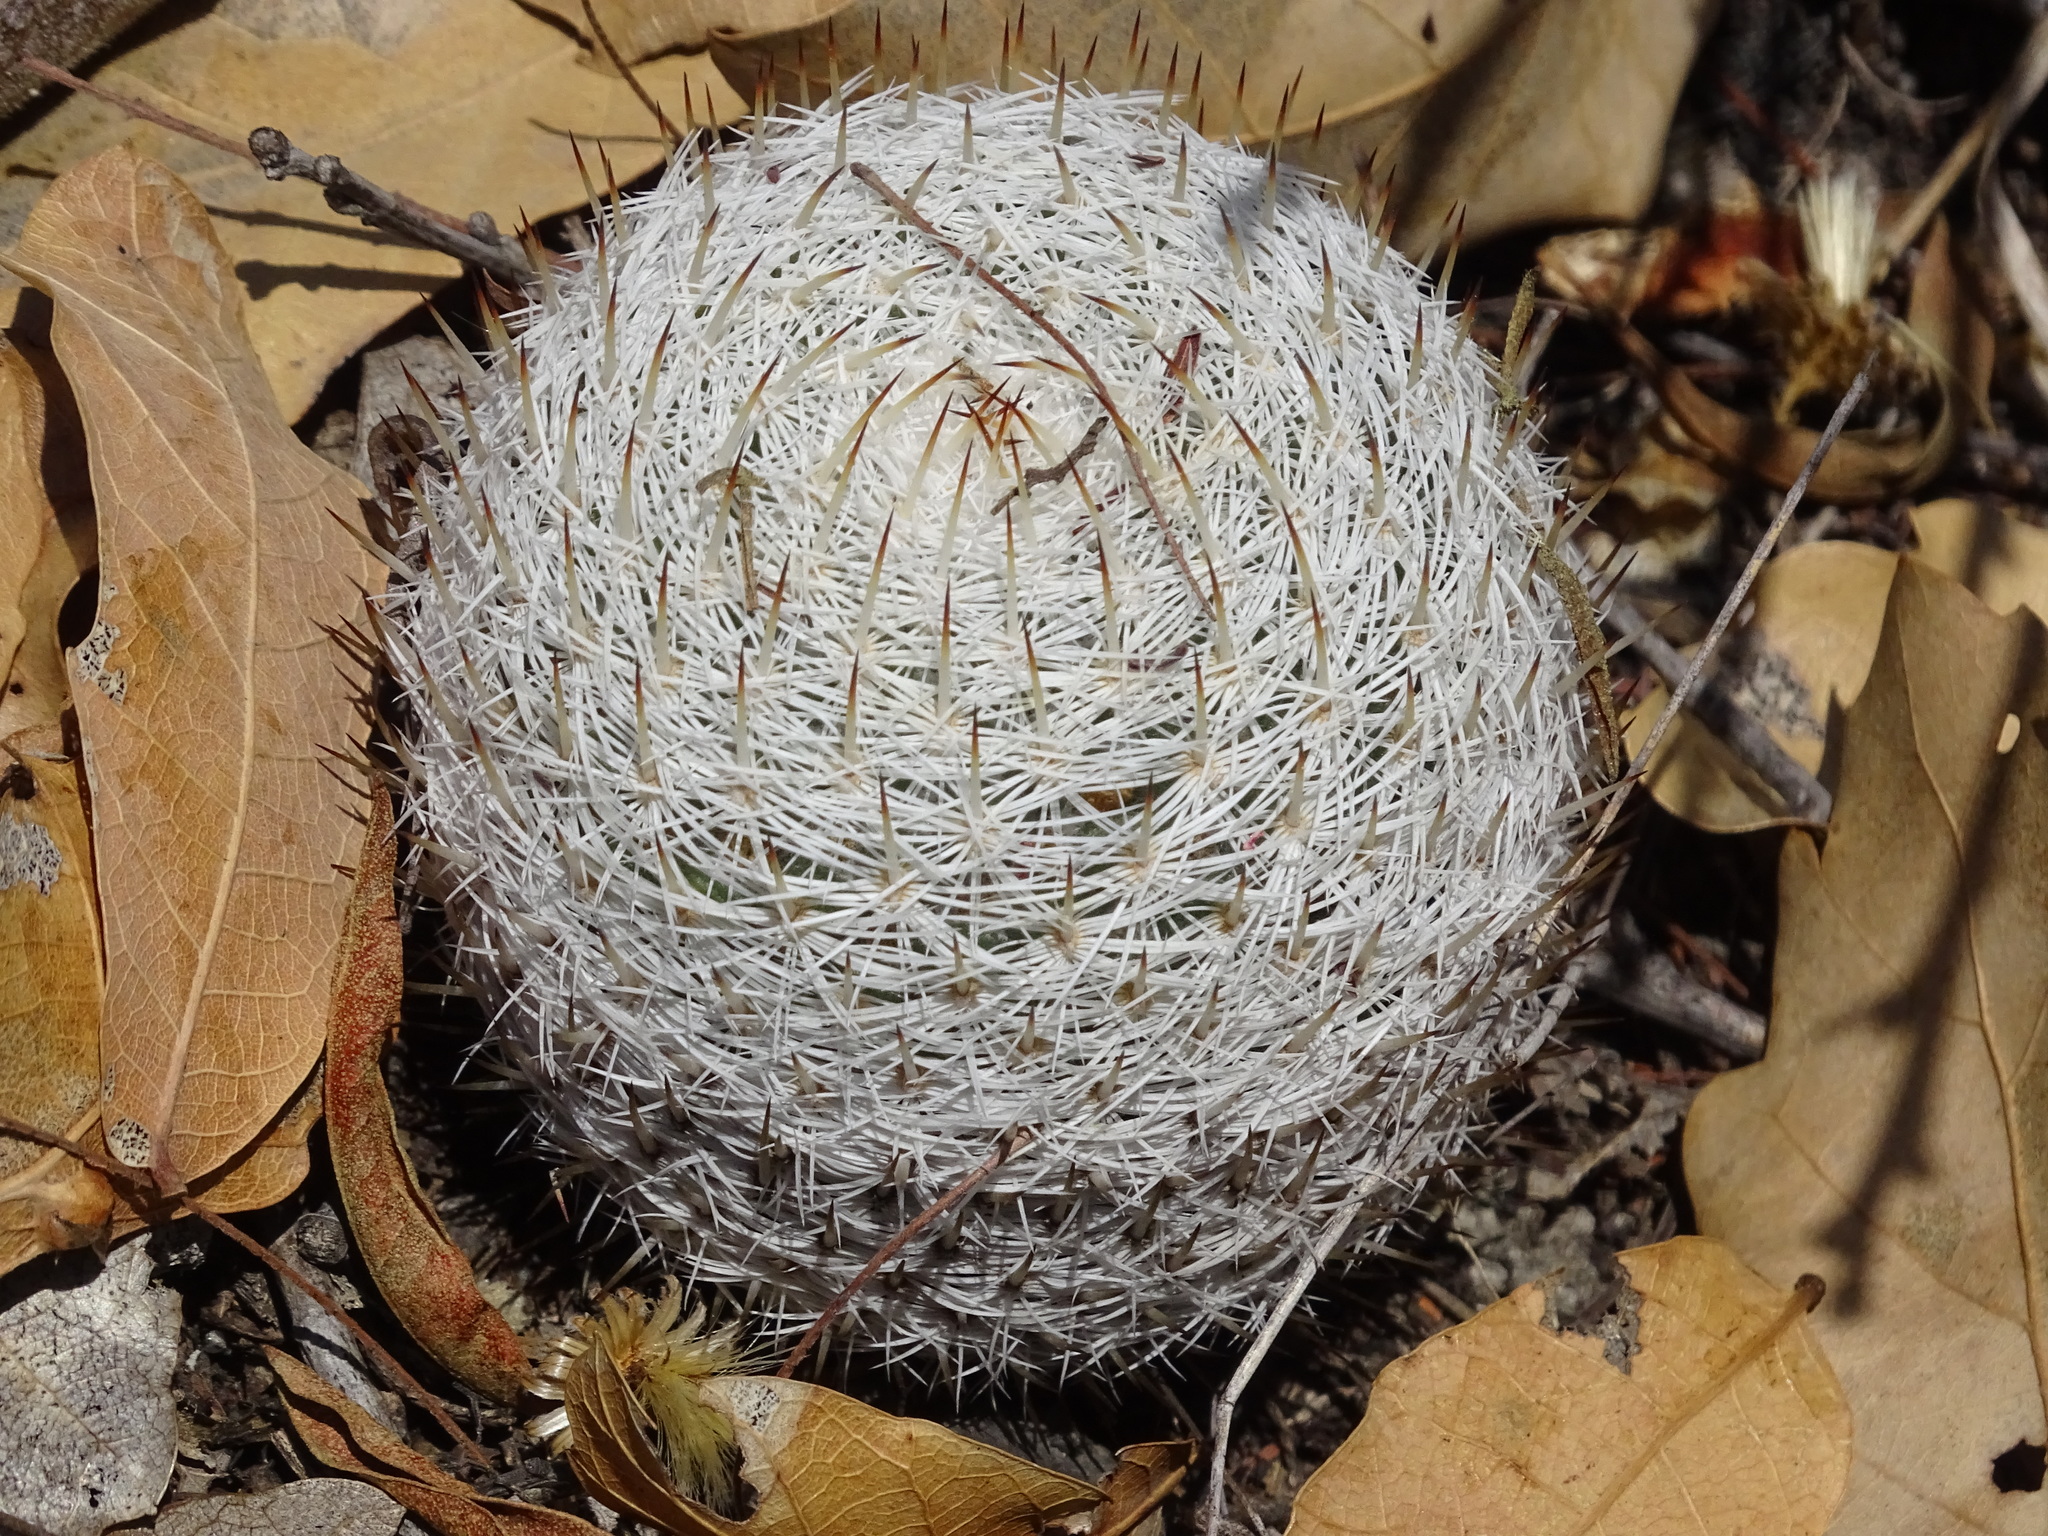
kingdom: Plantae
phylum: Tracheophyta
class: Magnoliopsida
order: Caryophyllales
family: Cactaceae
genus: Mammillaria
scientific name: Mammillaria haageana
